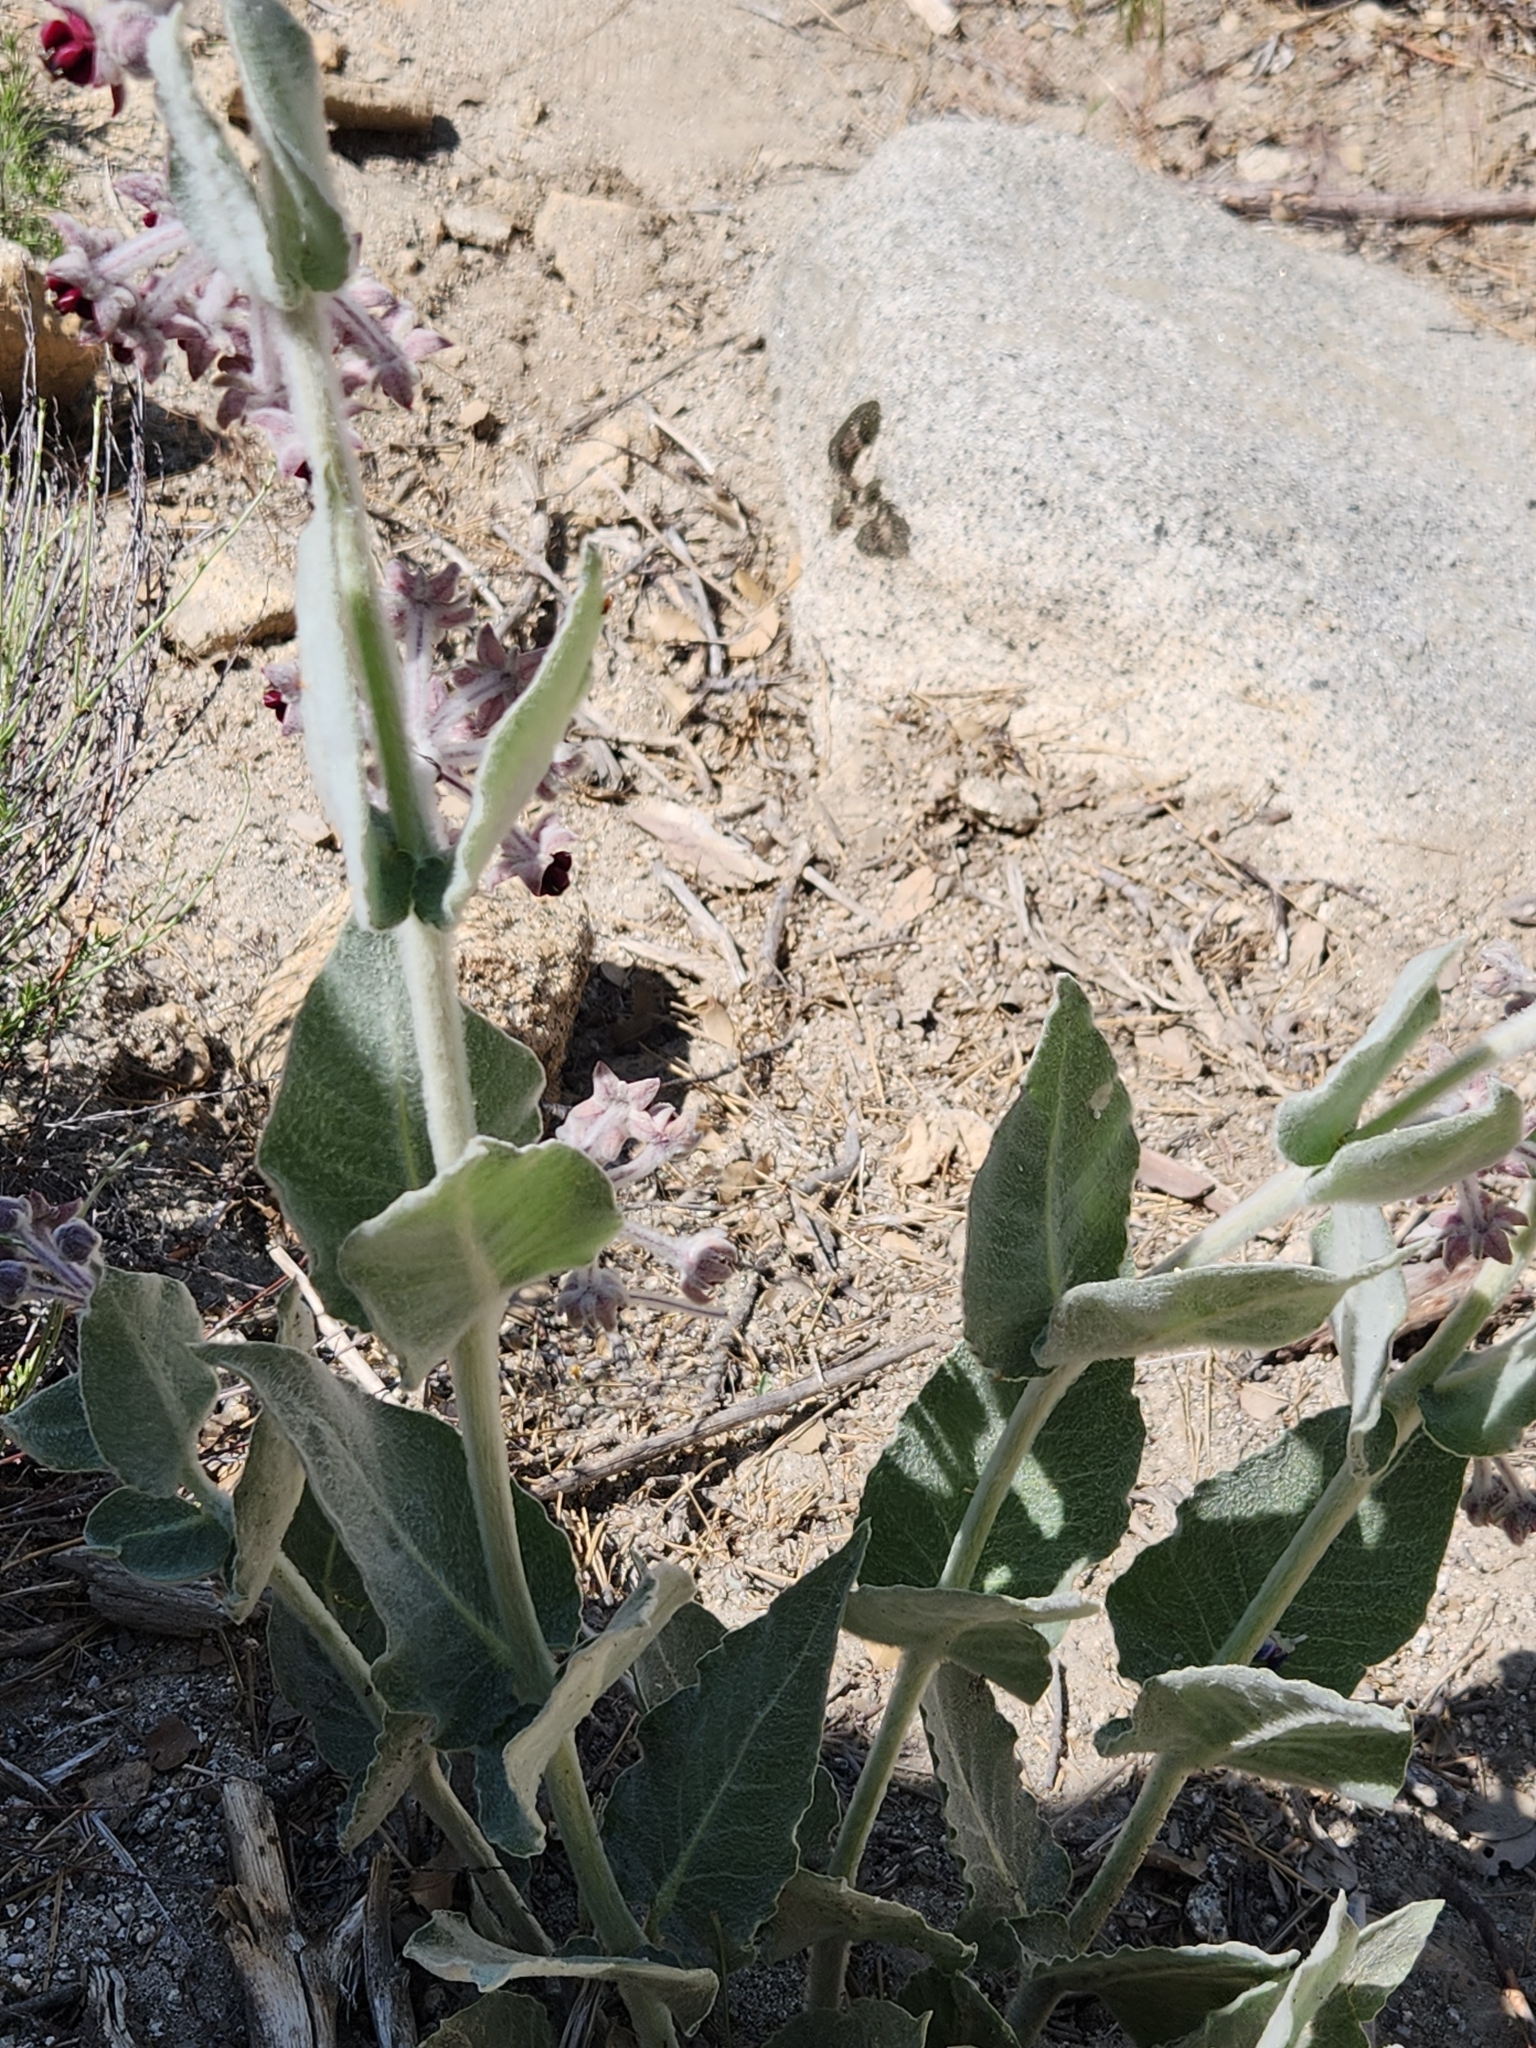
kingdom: Plantae
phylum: Tracheophyta
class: Magnoliopsida
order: Gentianales
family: Apocynaceae
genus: Asclepias
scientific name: Asclepias californica
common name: California milkweed
